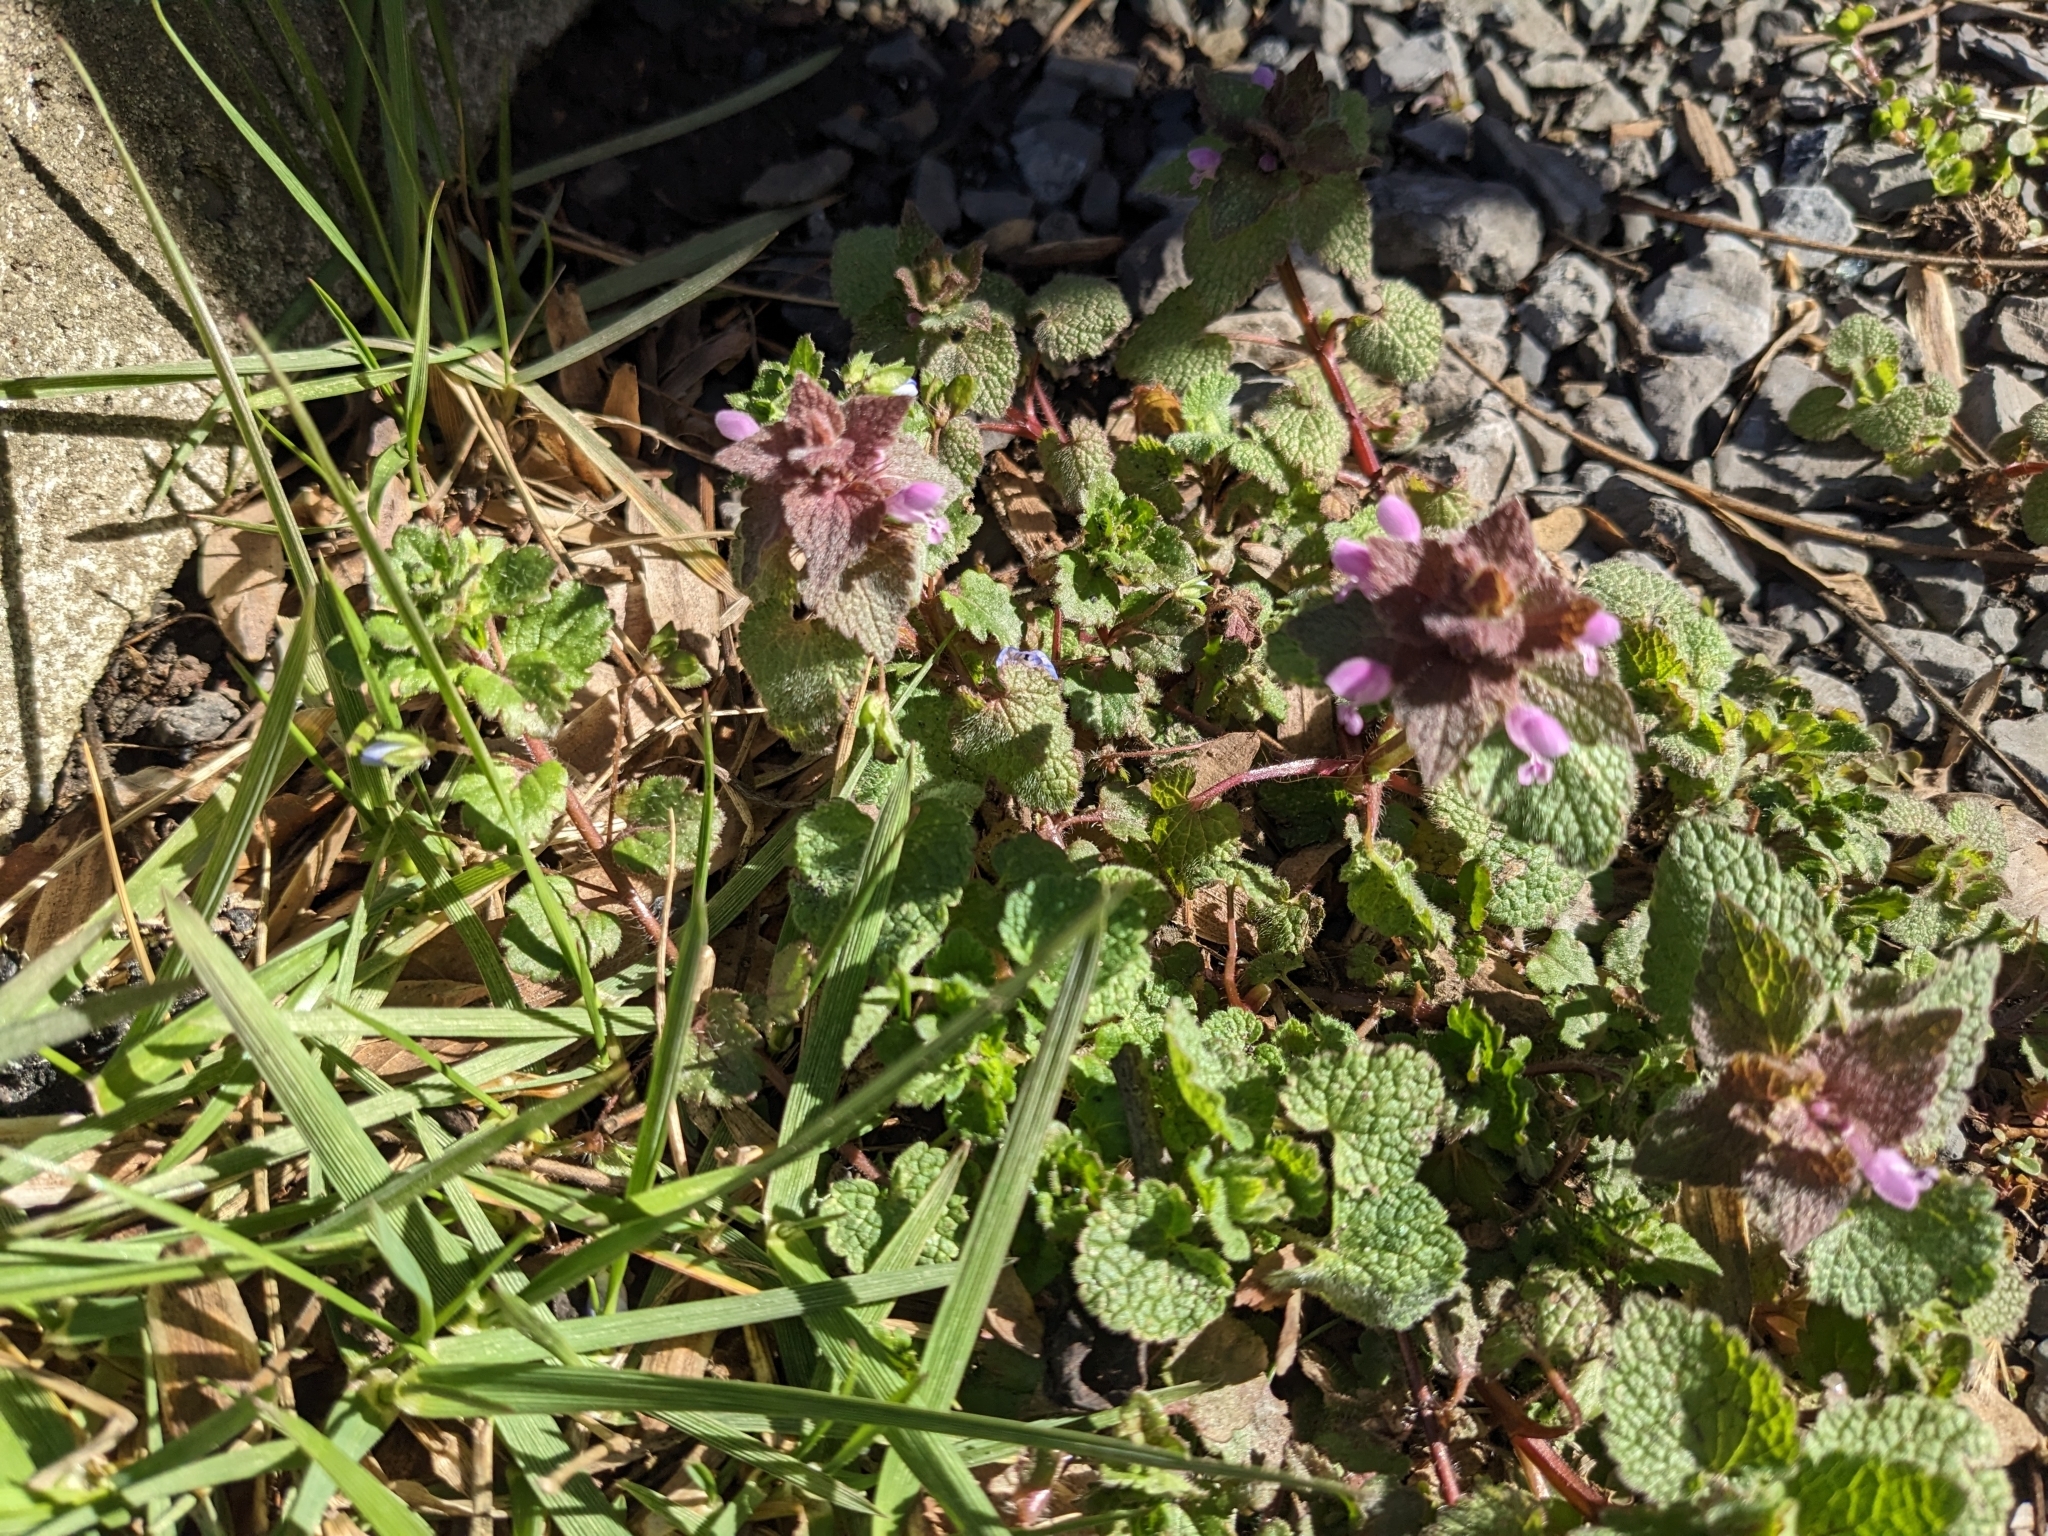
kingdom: Plantae
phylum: Tracheophyta
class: Magnoliopsida
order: Lamiales
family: Lamiaceae
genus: Lamium
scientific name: Lamium purpureum
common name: Red dead-nettle
